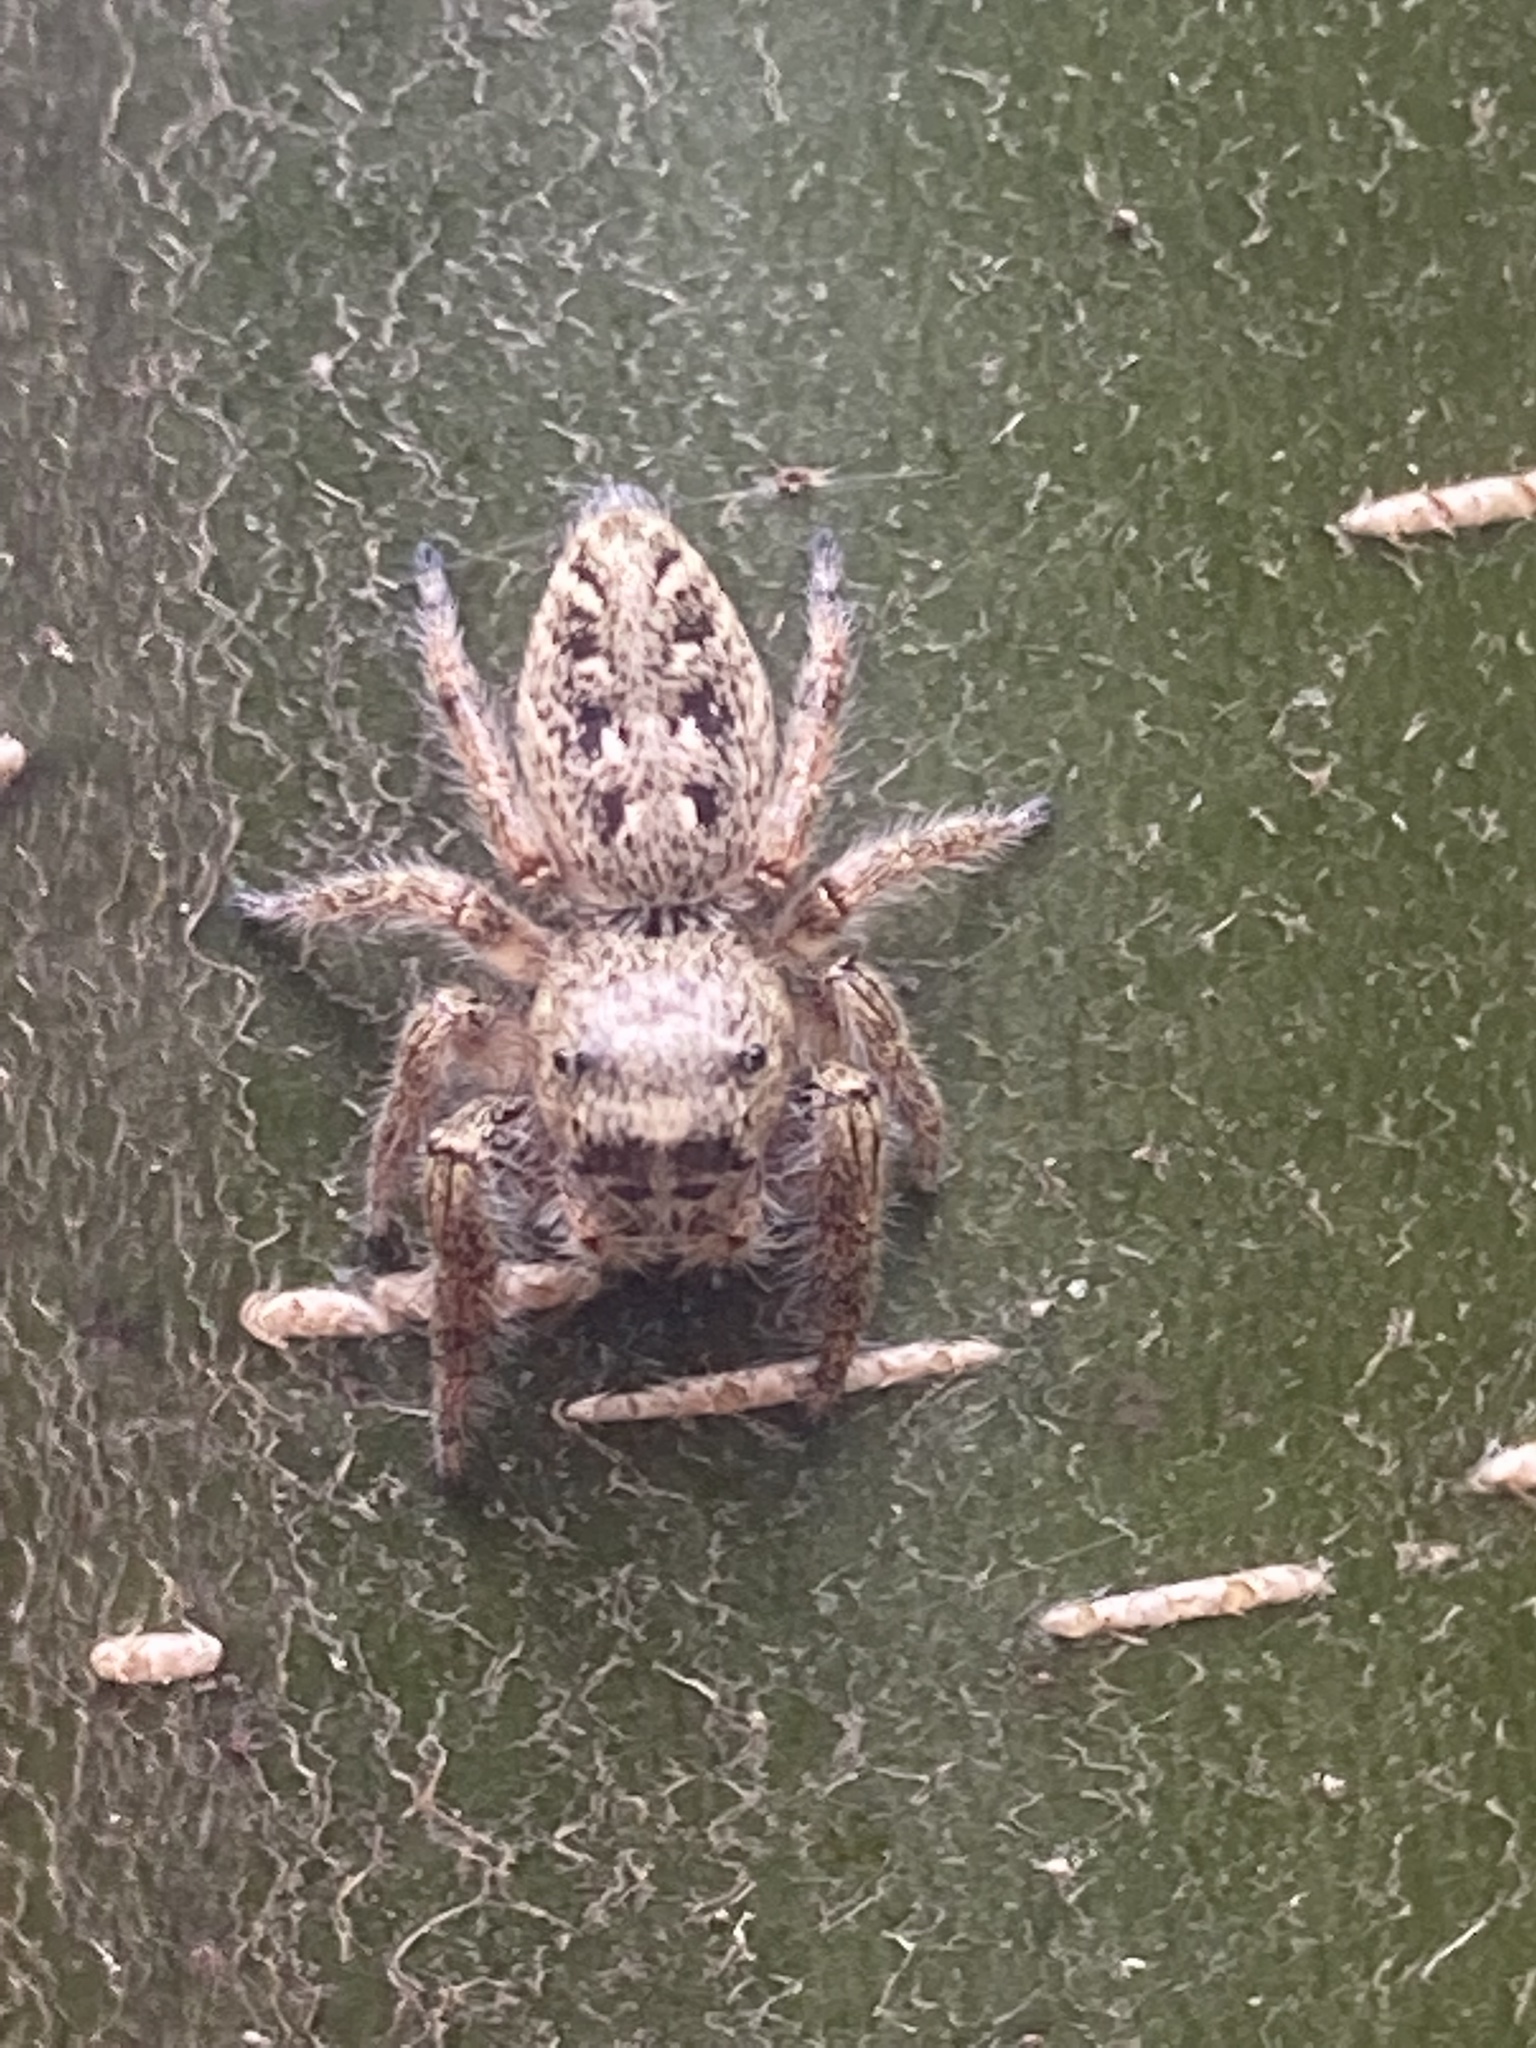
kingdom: Animalia
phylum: Arthropoda
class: Arachnida
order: Araneae
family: Salticidae
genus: Eris
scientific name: Eris militaris
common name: Bronze jumper
